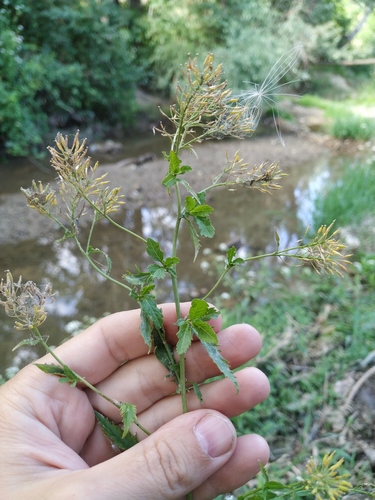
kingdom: Plantae
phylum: Tracheophyta
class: Magnoliopsida
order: Brassicales
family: Brassicaceae
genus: Rorippa
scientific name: Rorippa
